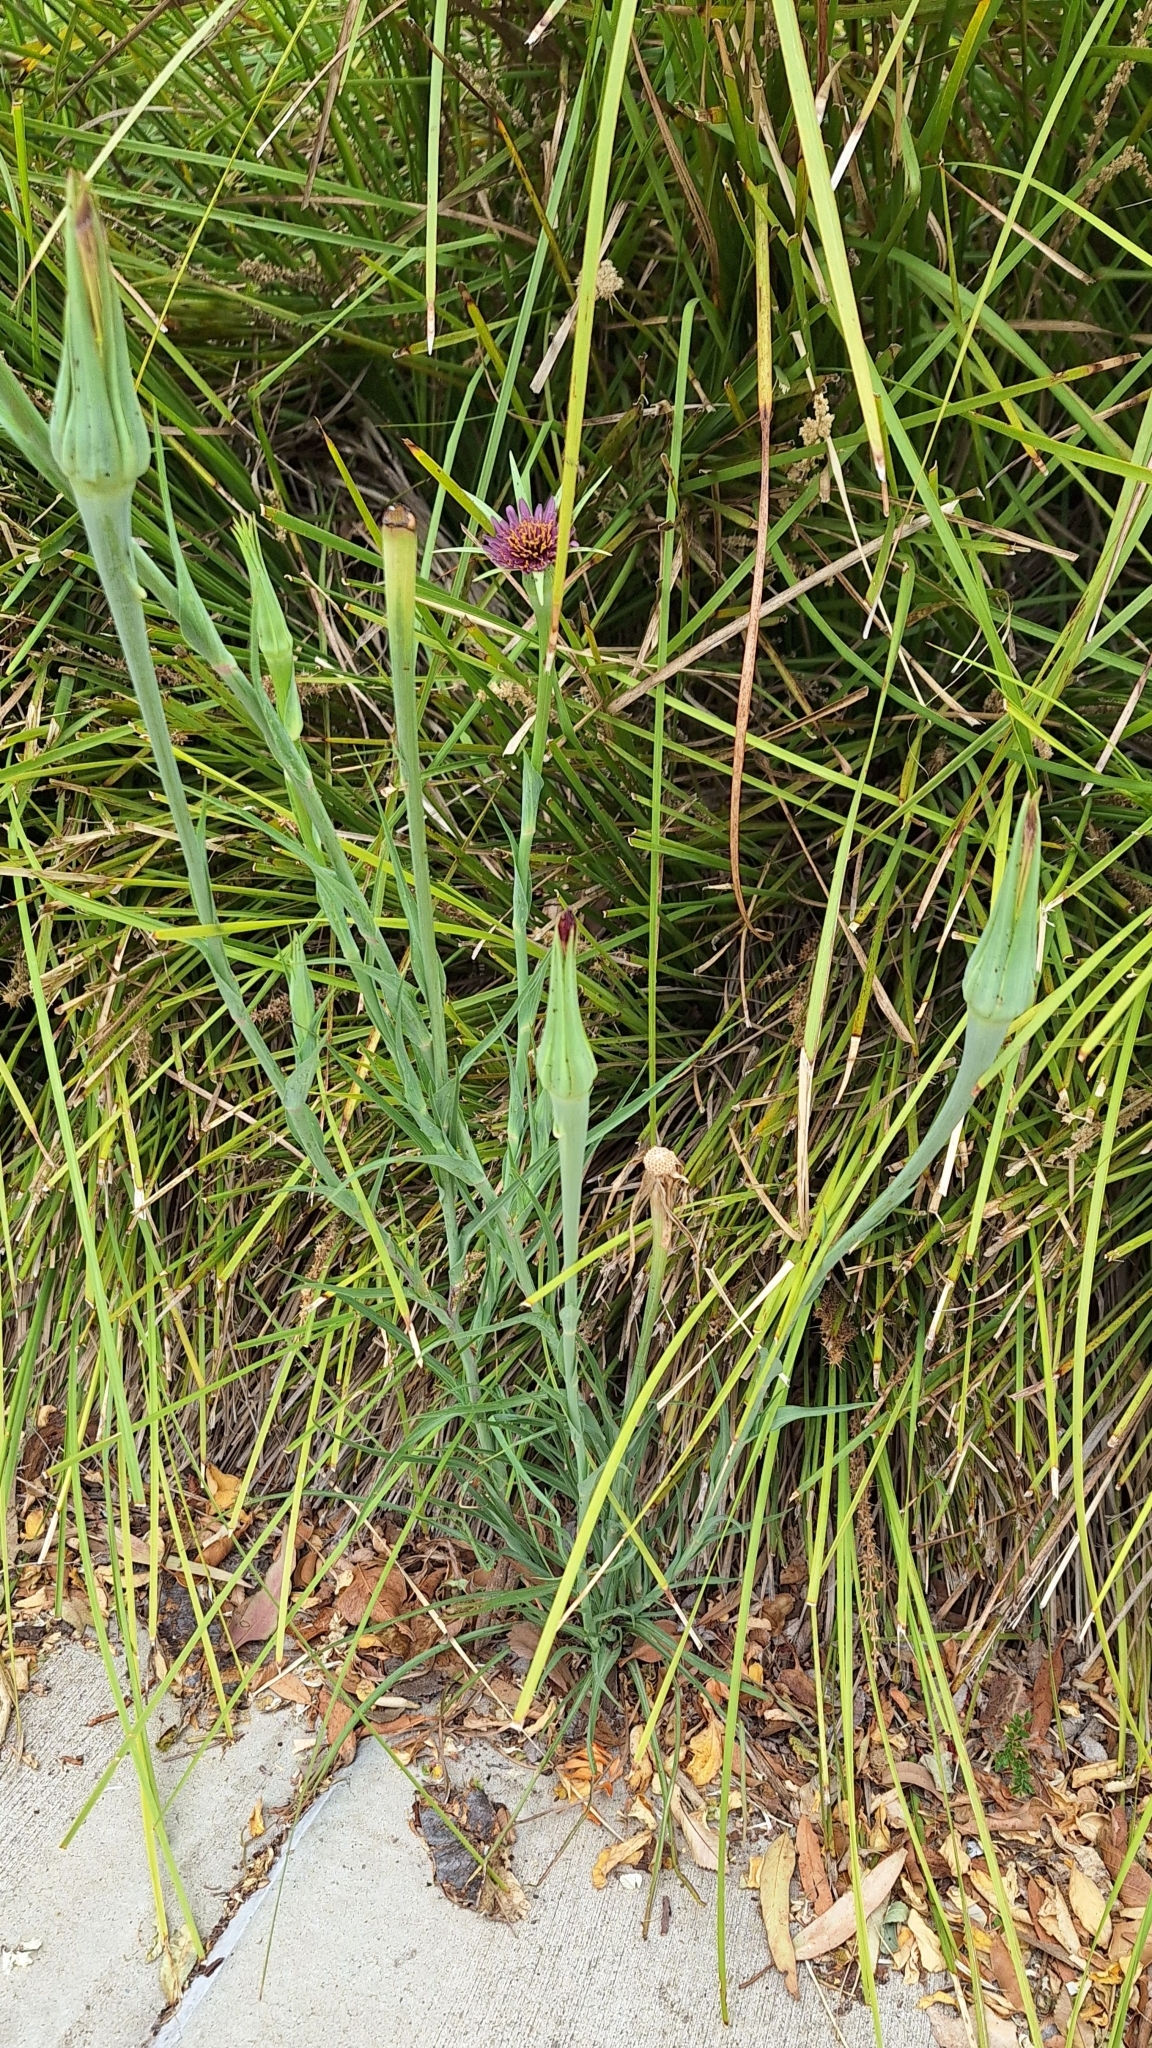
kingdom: Plantae
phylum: Tracheophyta
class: Magnoliopsida
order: Asterales
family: Asteraceae
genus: Tragopogon
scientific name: Tragopogon porrifolius
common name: Salsify
